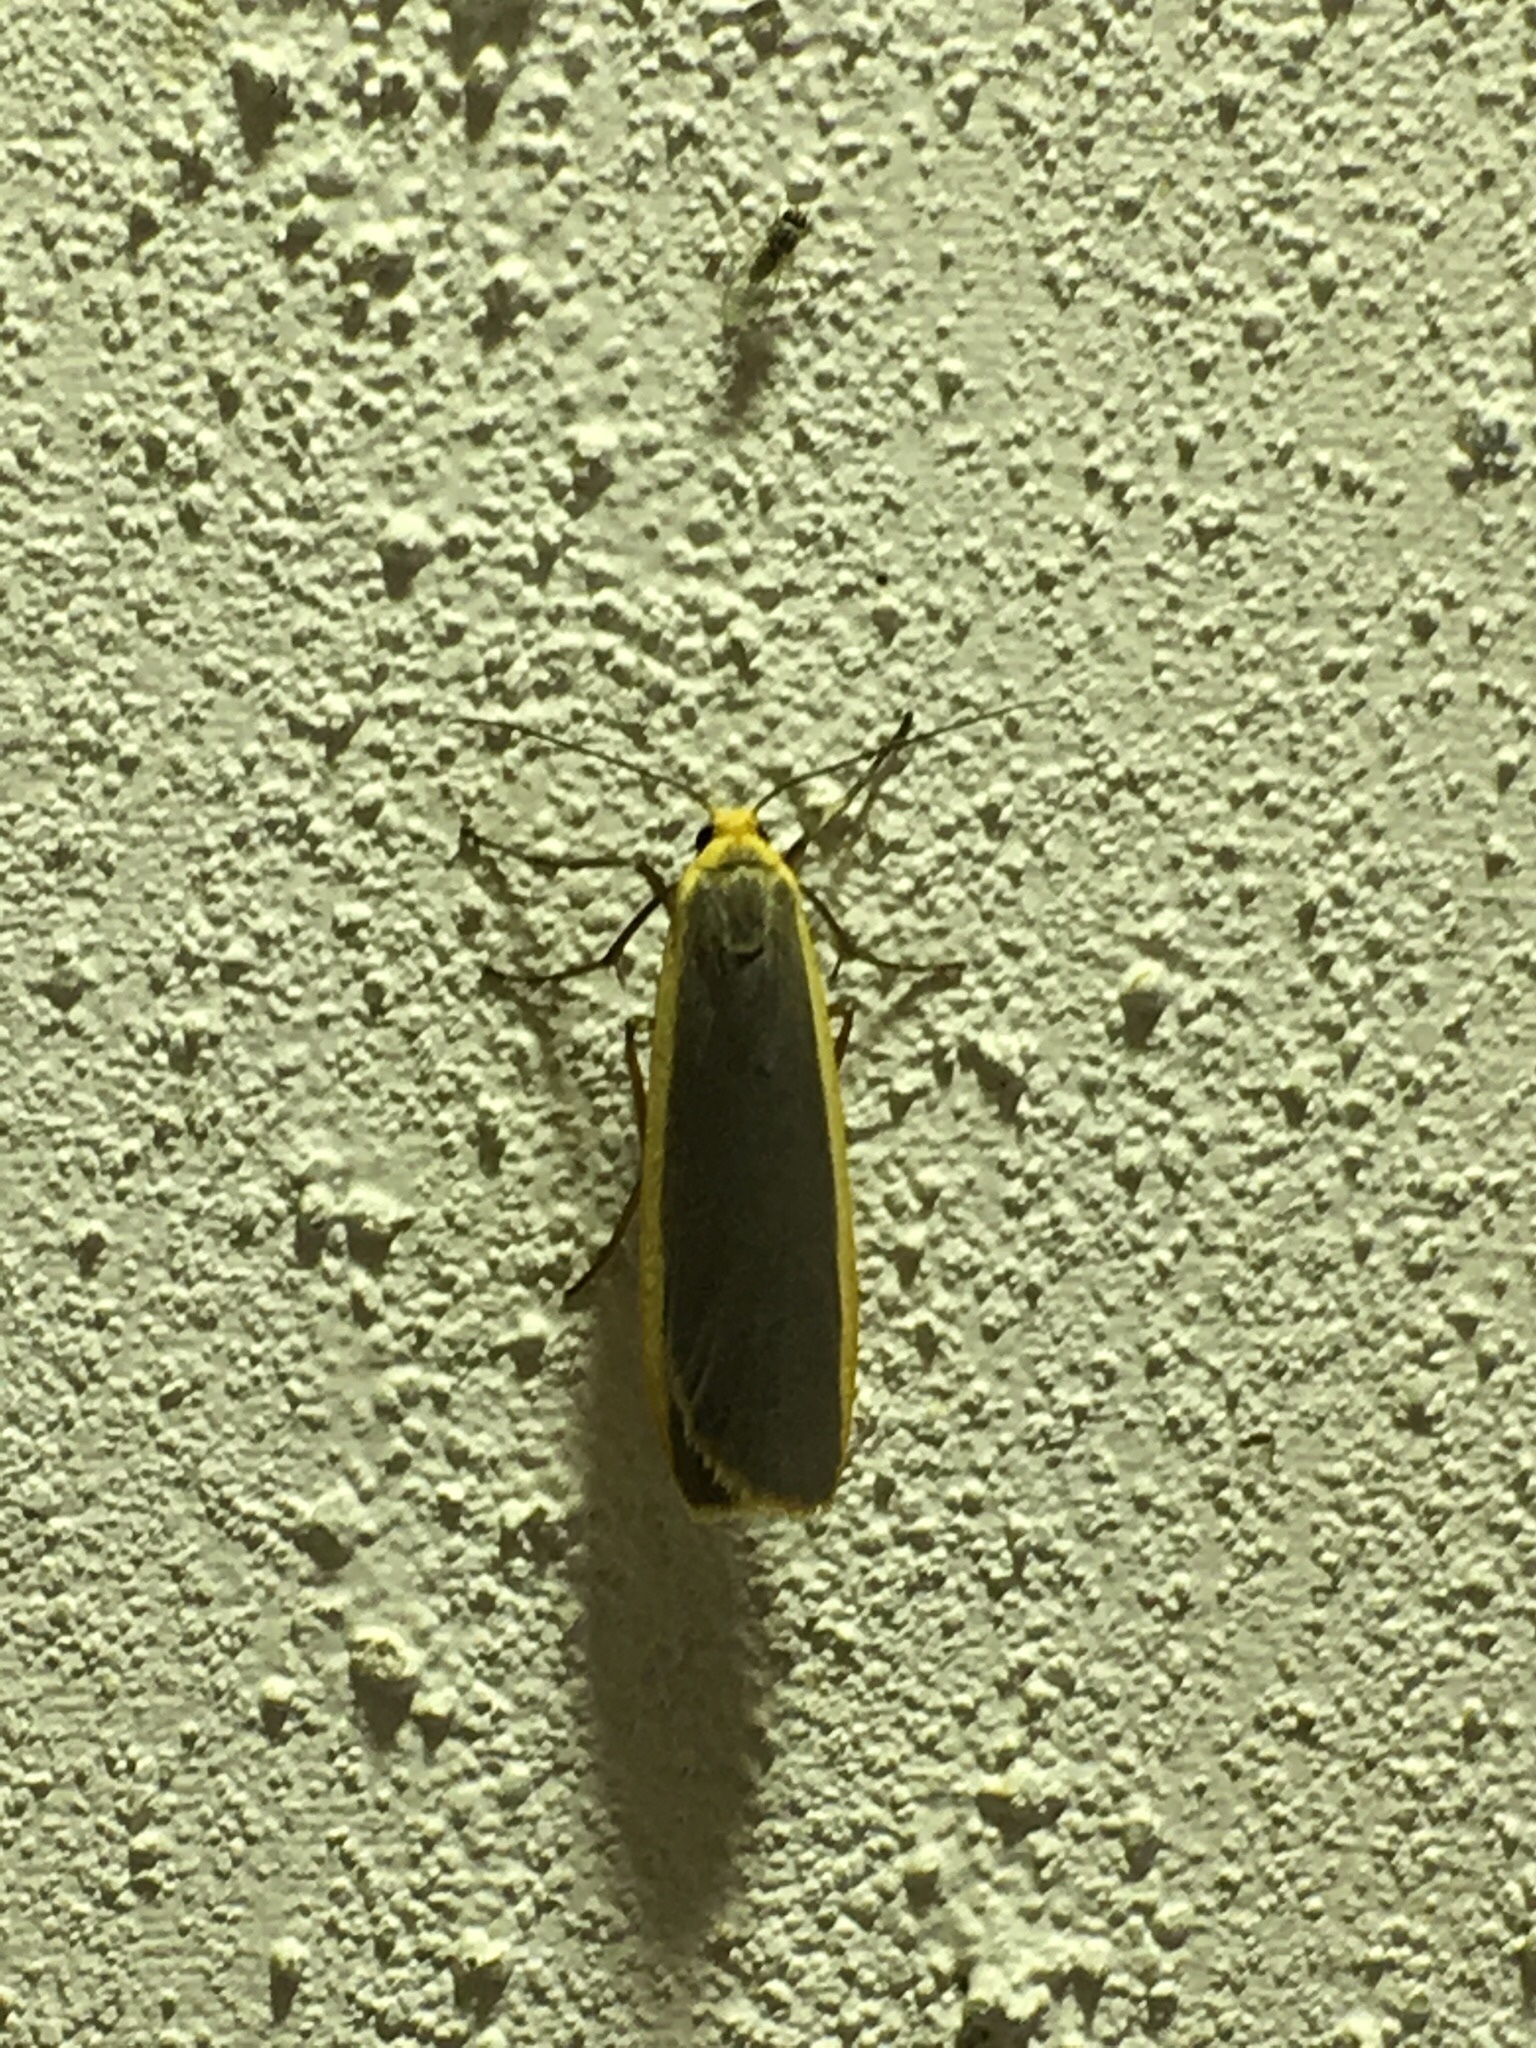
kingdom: Animalia
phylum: Arthropoda
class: Insecta
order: Lepidoptera
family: Erebidae
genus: Nyea
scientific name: Nyea lurideola
